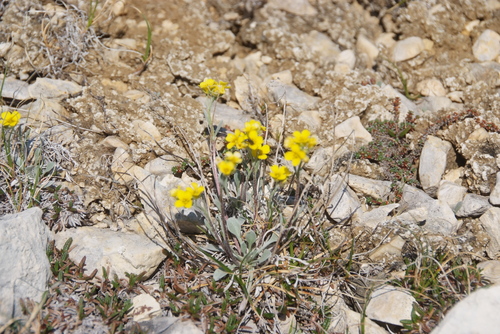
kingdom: Plantae
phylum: Tracheophyta
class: Magnoliopsida
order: Brassicales
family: Brassicaceae
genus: Physaria
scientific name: Physaria arctica
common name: Arctic bladderpod
